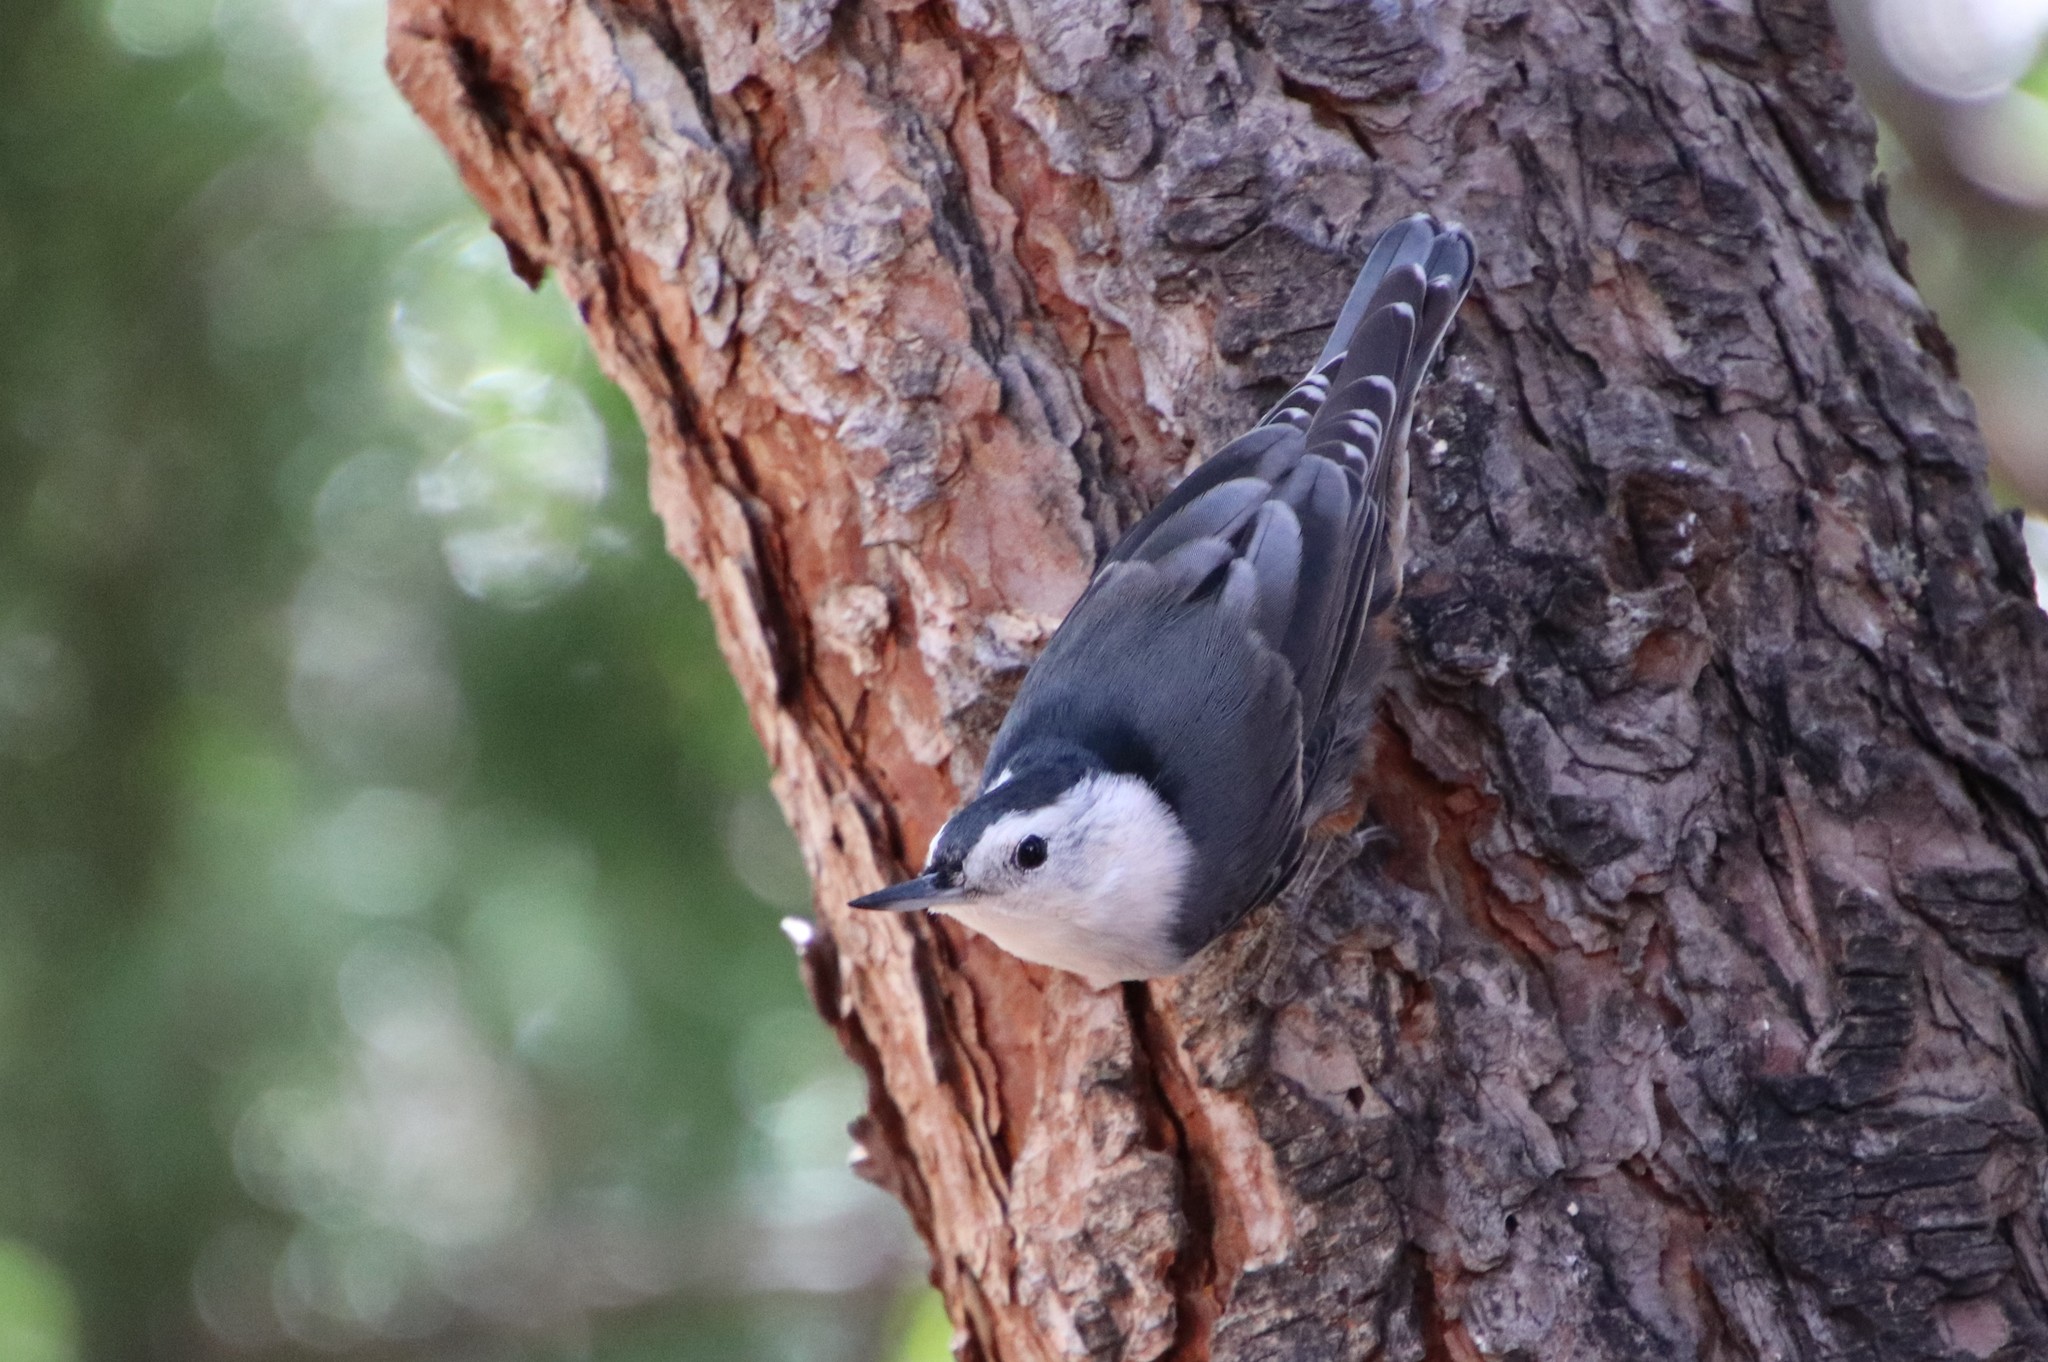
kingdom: Animalia
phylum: Chordata
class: Aves
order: Passeriformes
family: Sittidae
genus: Sitta
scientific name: Sitta carolinensis
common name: White-breasted nuthatch
